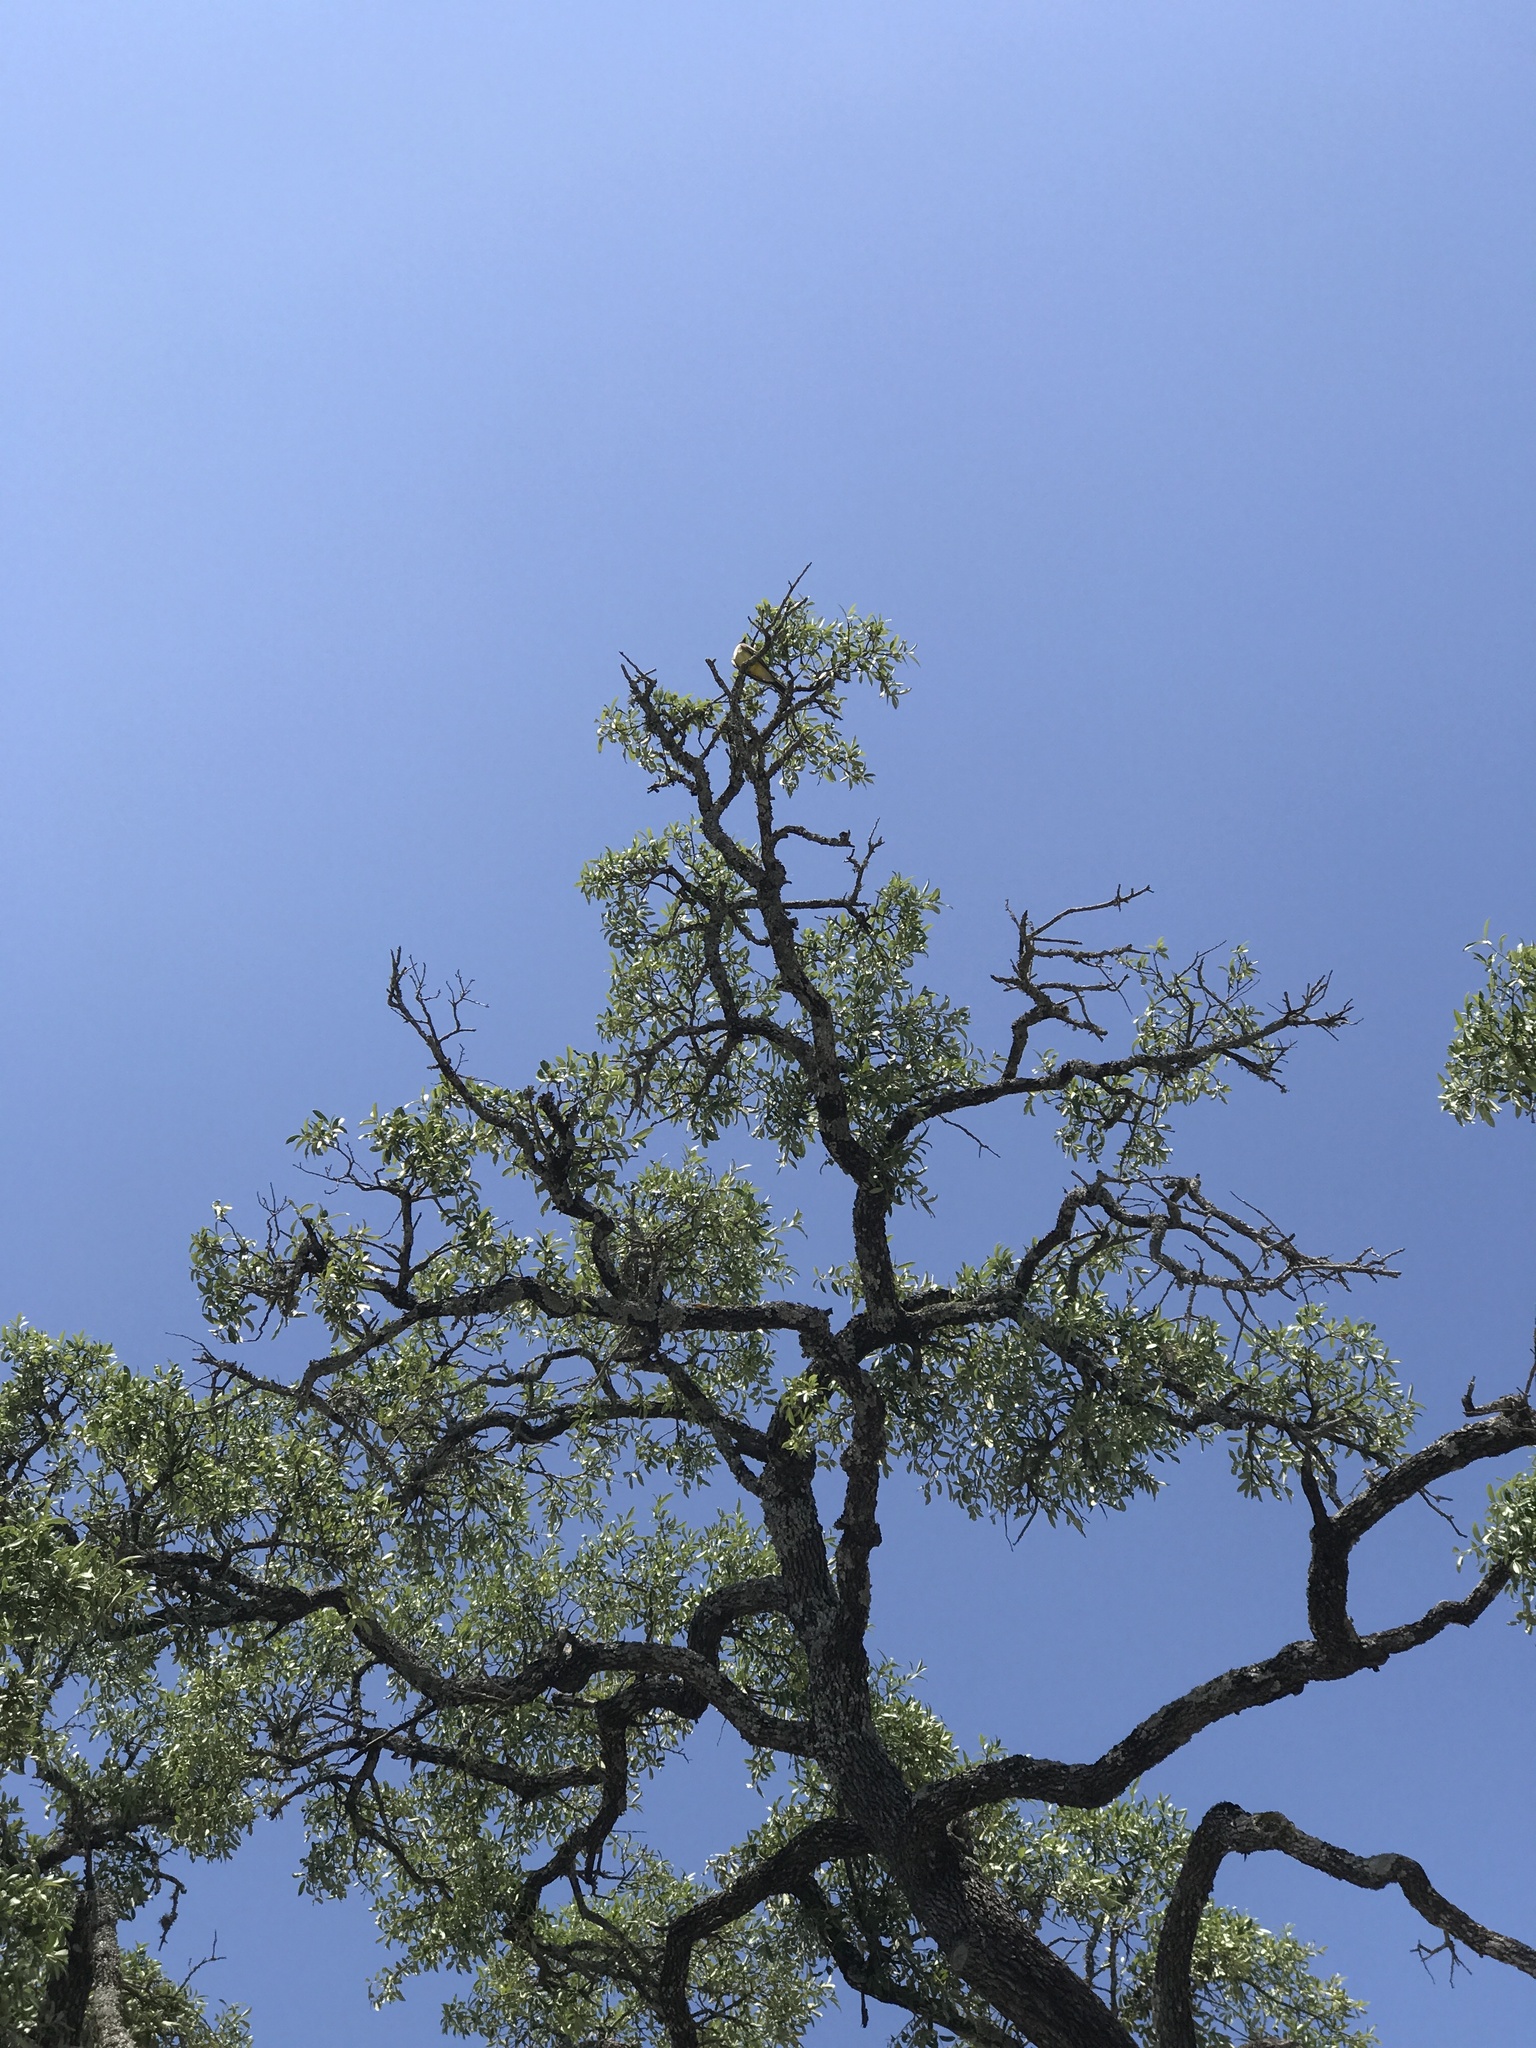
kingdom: Animalia
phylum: Chordata
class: Aves
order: Passeriformes
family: Tyrannidae
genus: Tyrannus
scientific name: Tyrannus verticalis
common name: Western kingbird
